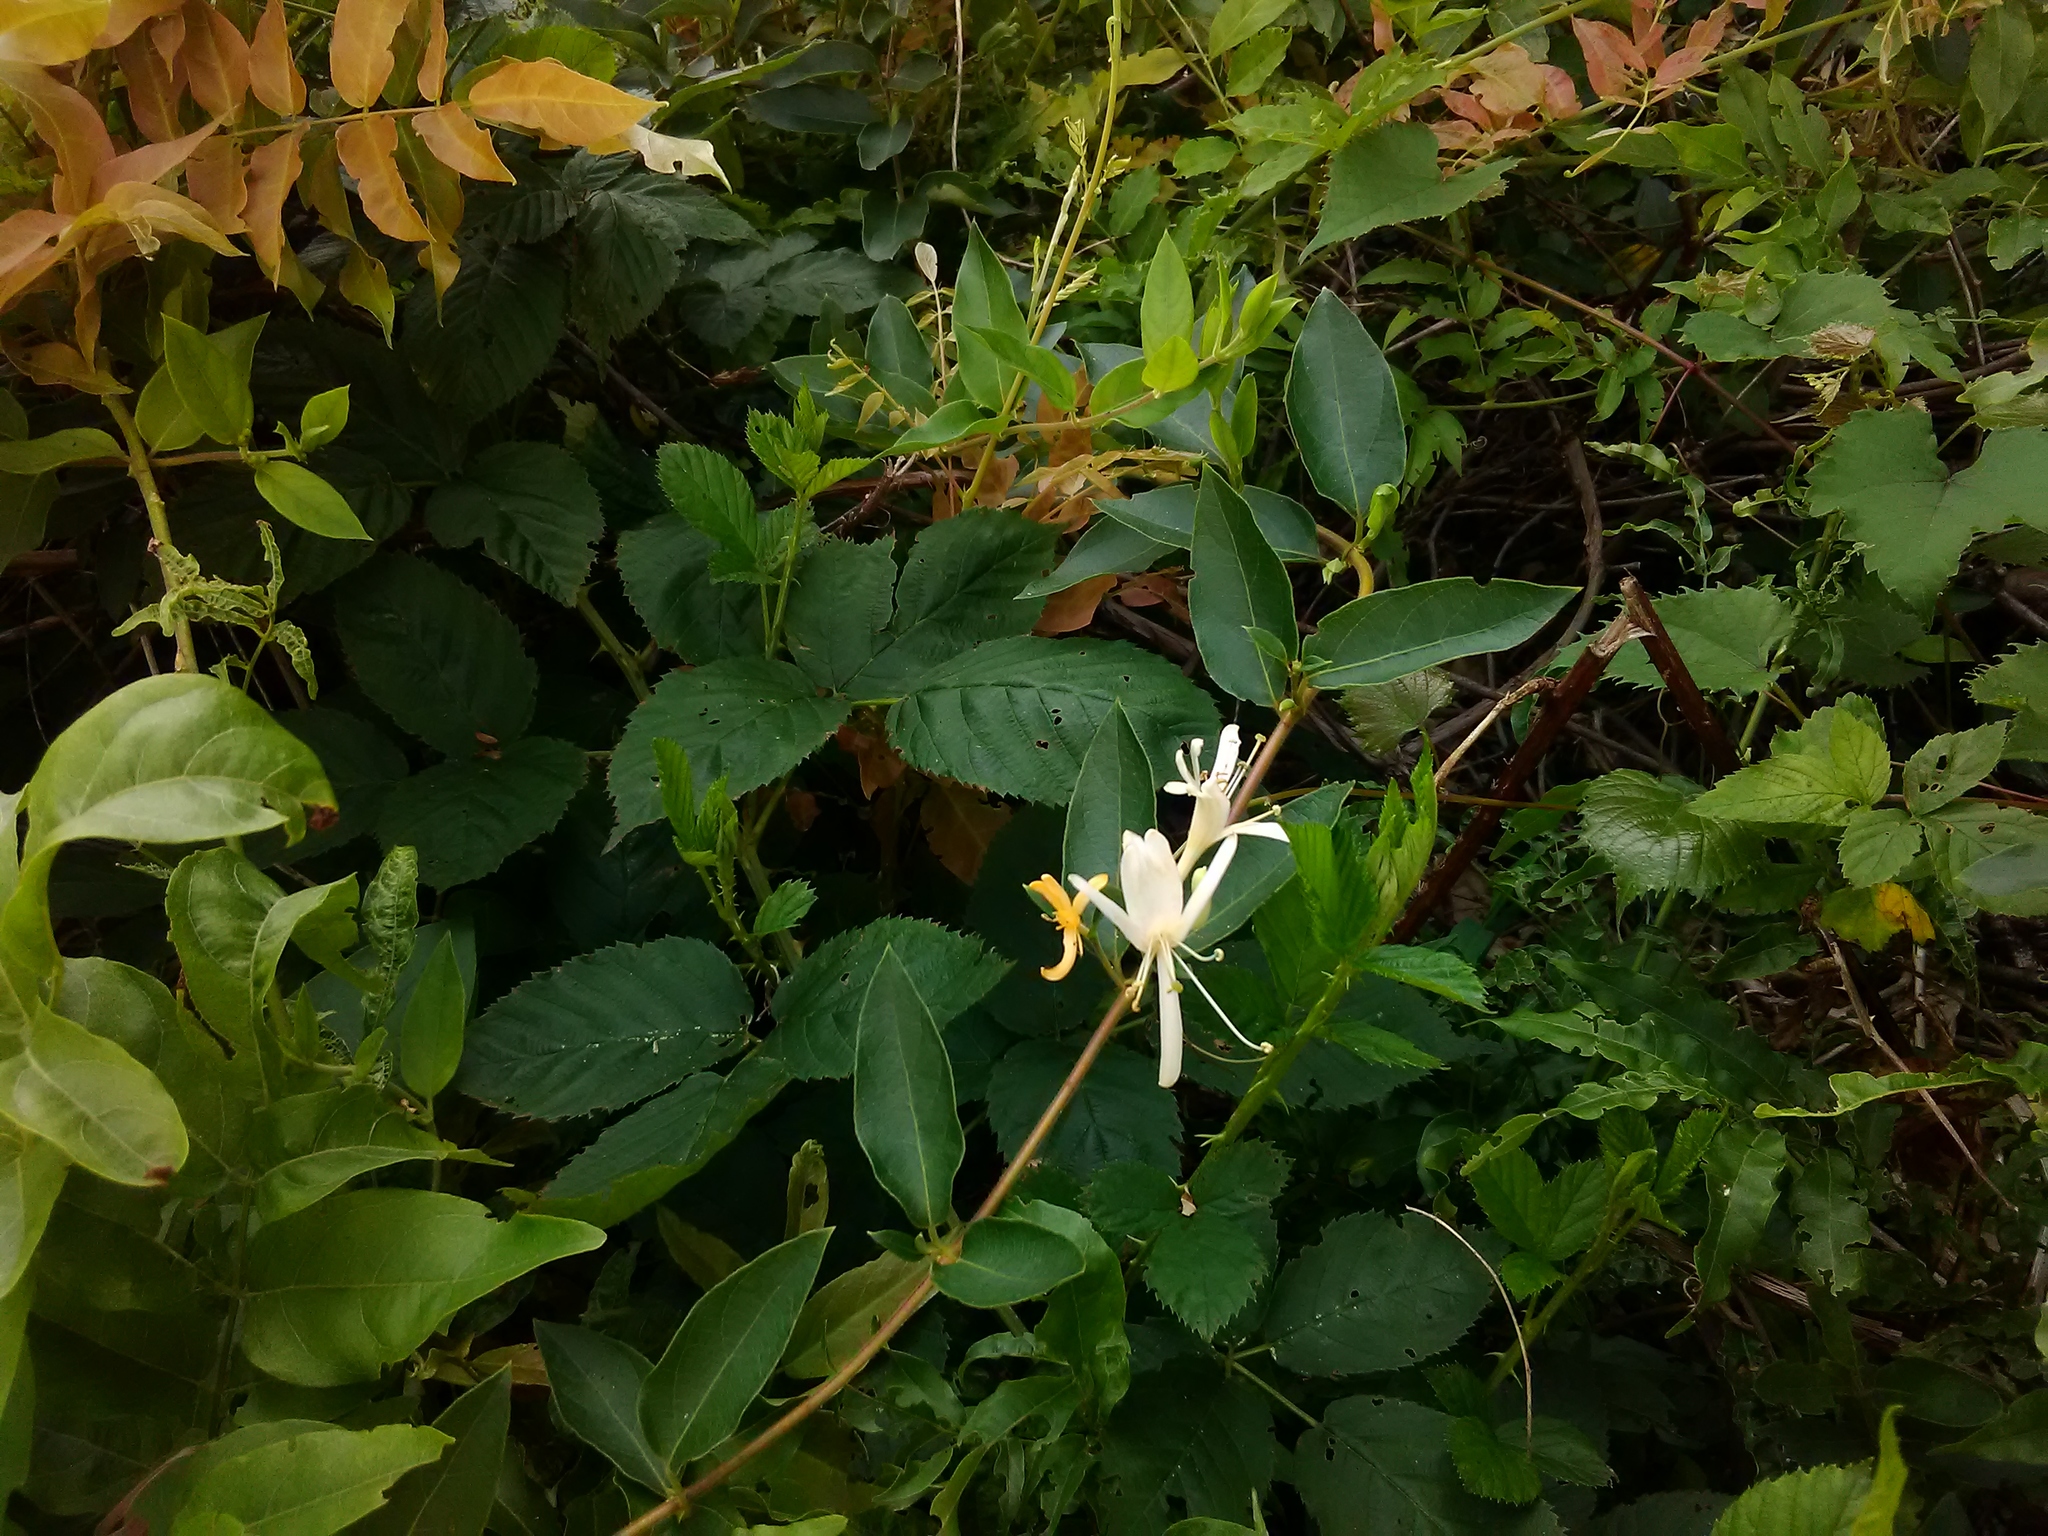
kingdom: Plantae
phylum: Tracheophyta
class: Magnoliopsida
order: Dipsacales
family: Caprifoliaceae
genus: Lonicera
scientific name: Lonicera japonica
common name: Japanese honeysuckle
